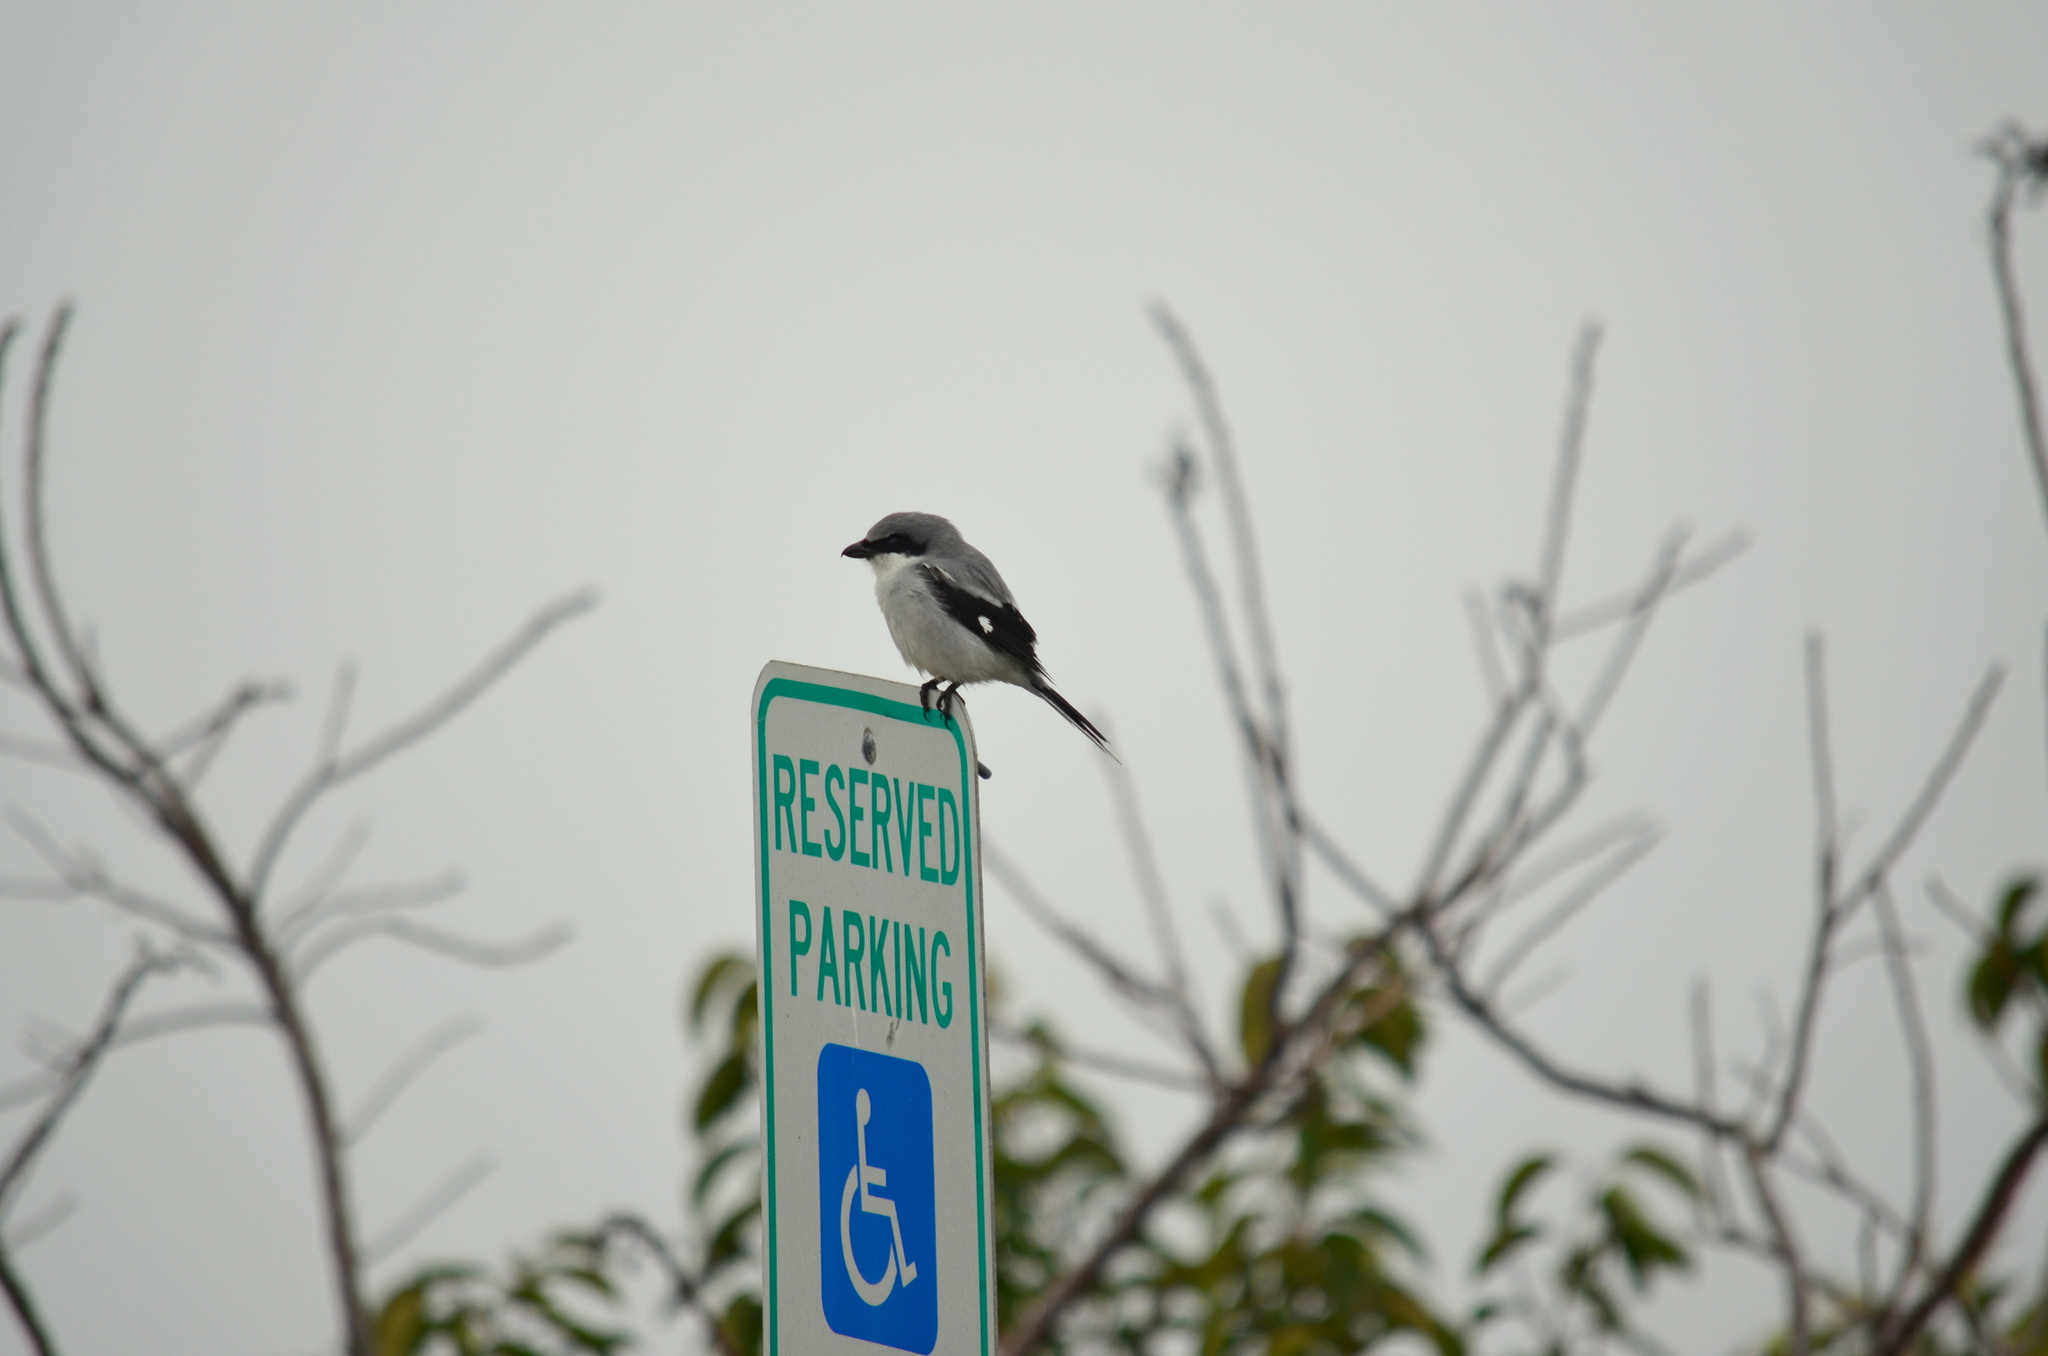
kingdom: Animalia
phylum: Chordata
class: Aves
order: Passeriformes
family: Laniidae
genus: Lanius
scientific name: Lanius ludovicianus
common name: Loggerhead shrike
